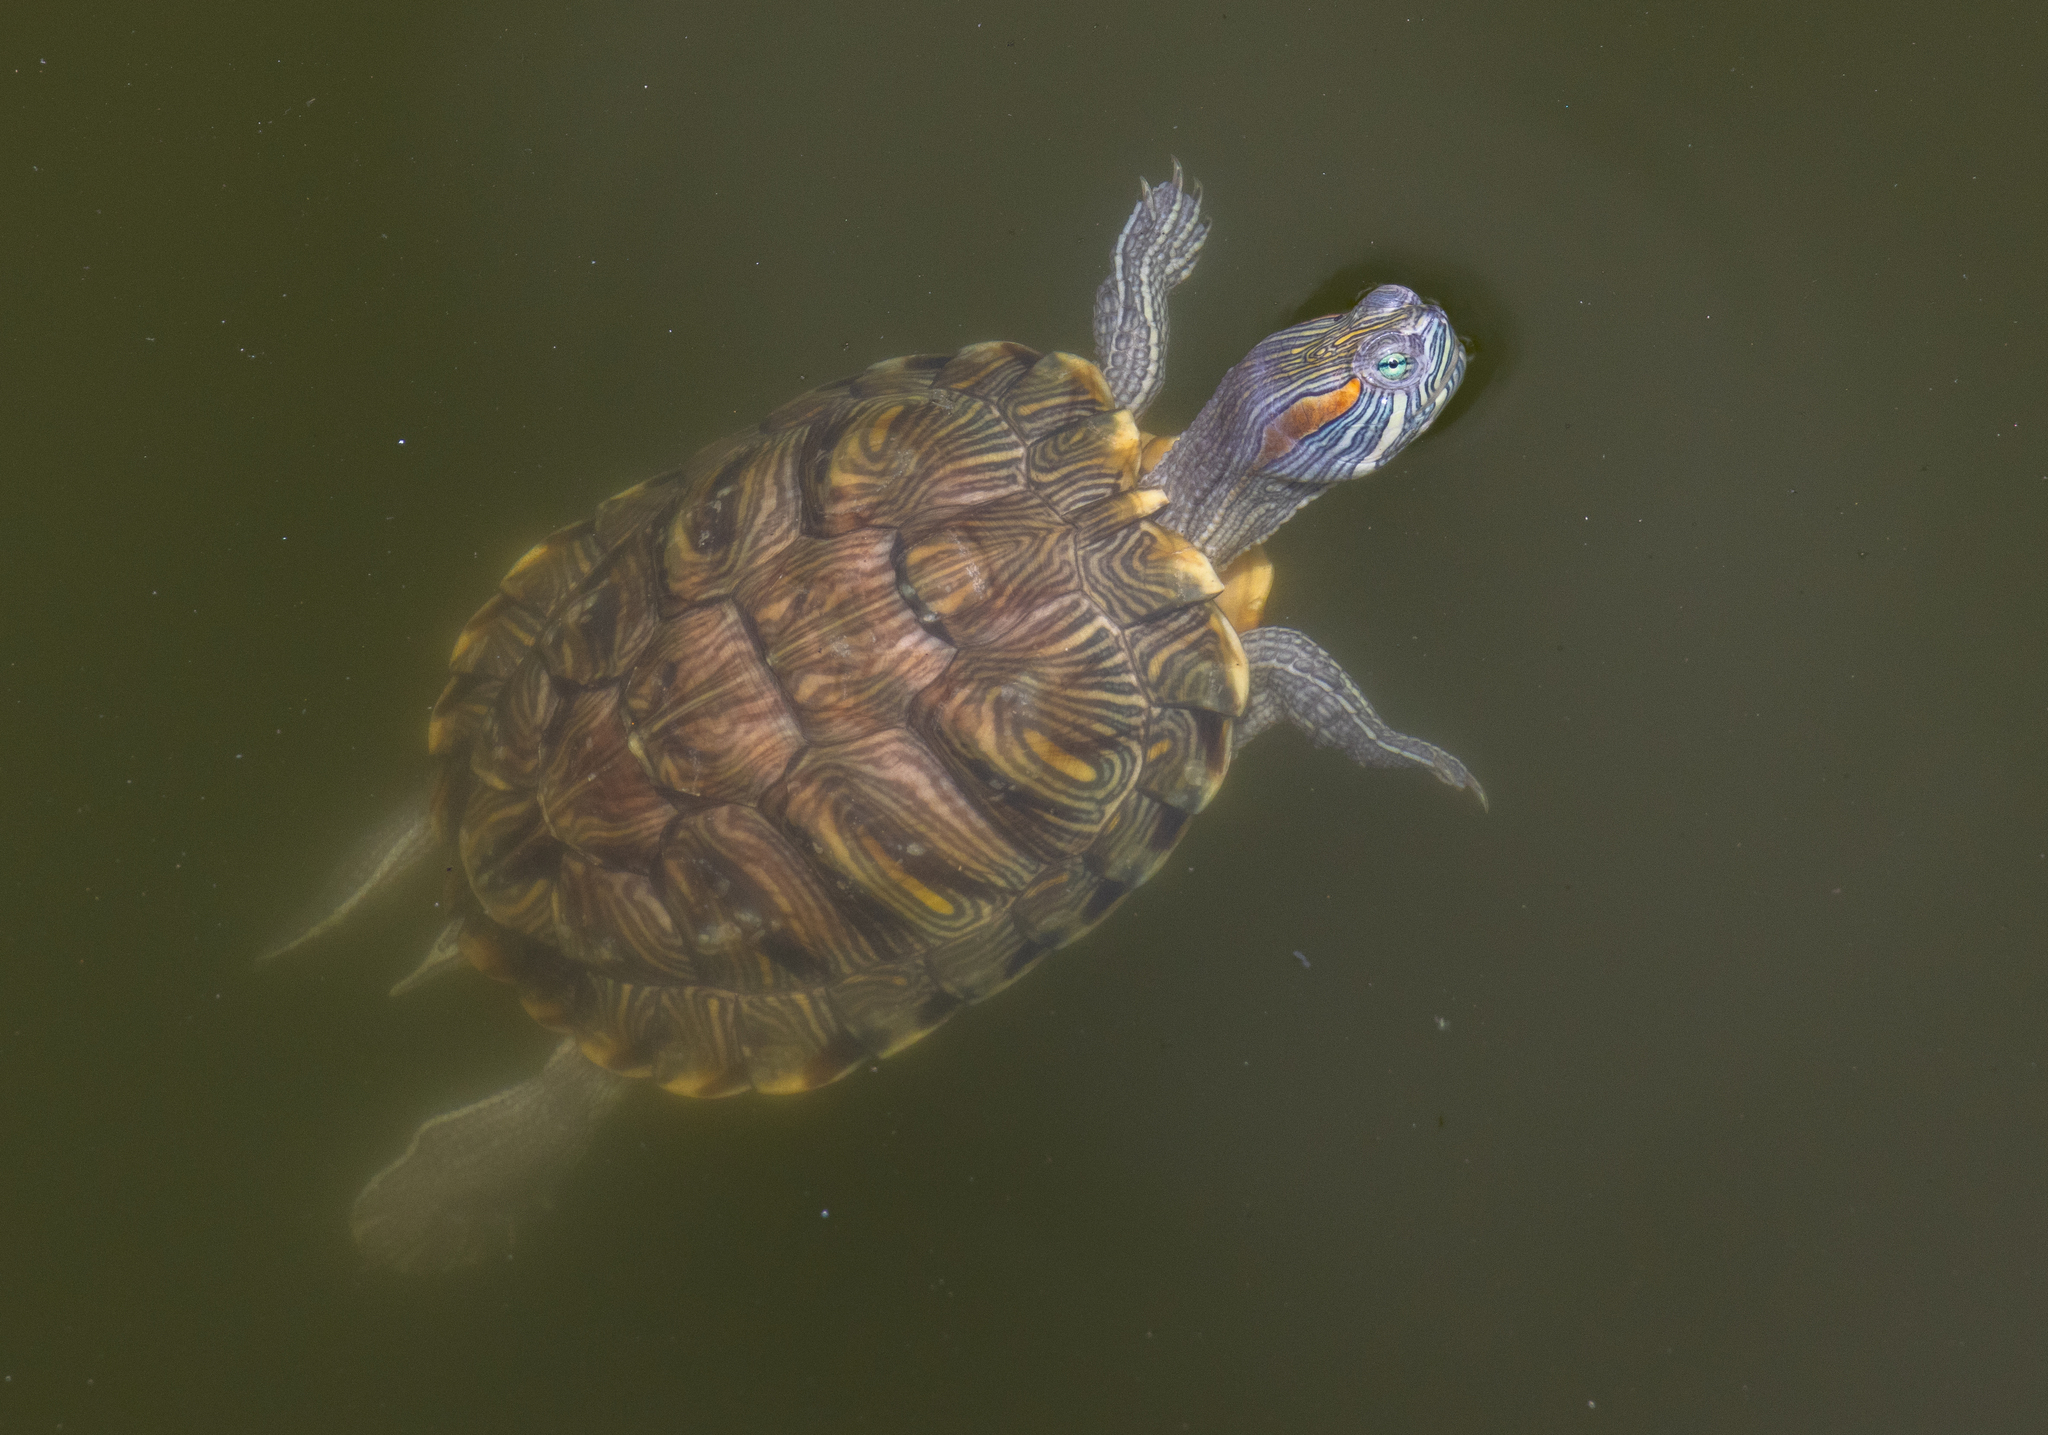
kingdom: Animalia
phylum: Chordata
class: Testudines
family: Emydidae
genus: Trachemys
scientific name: Trachemys scripta
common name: Slider
